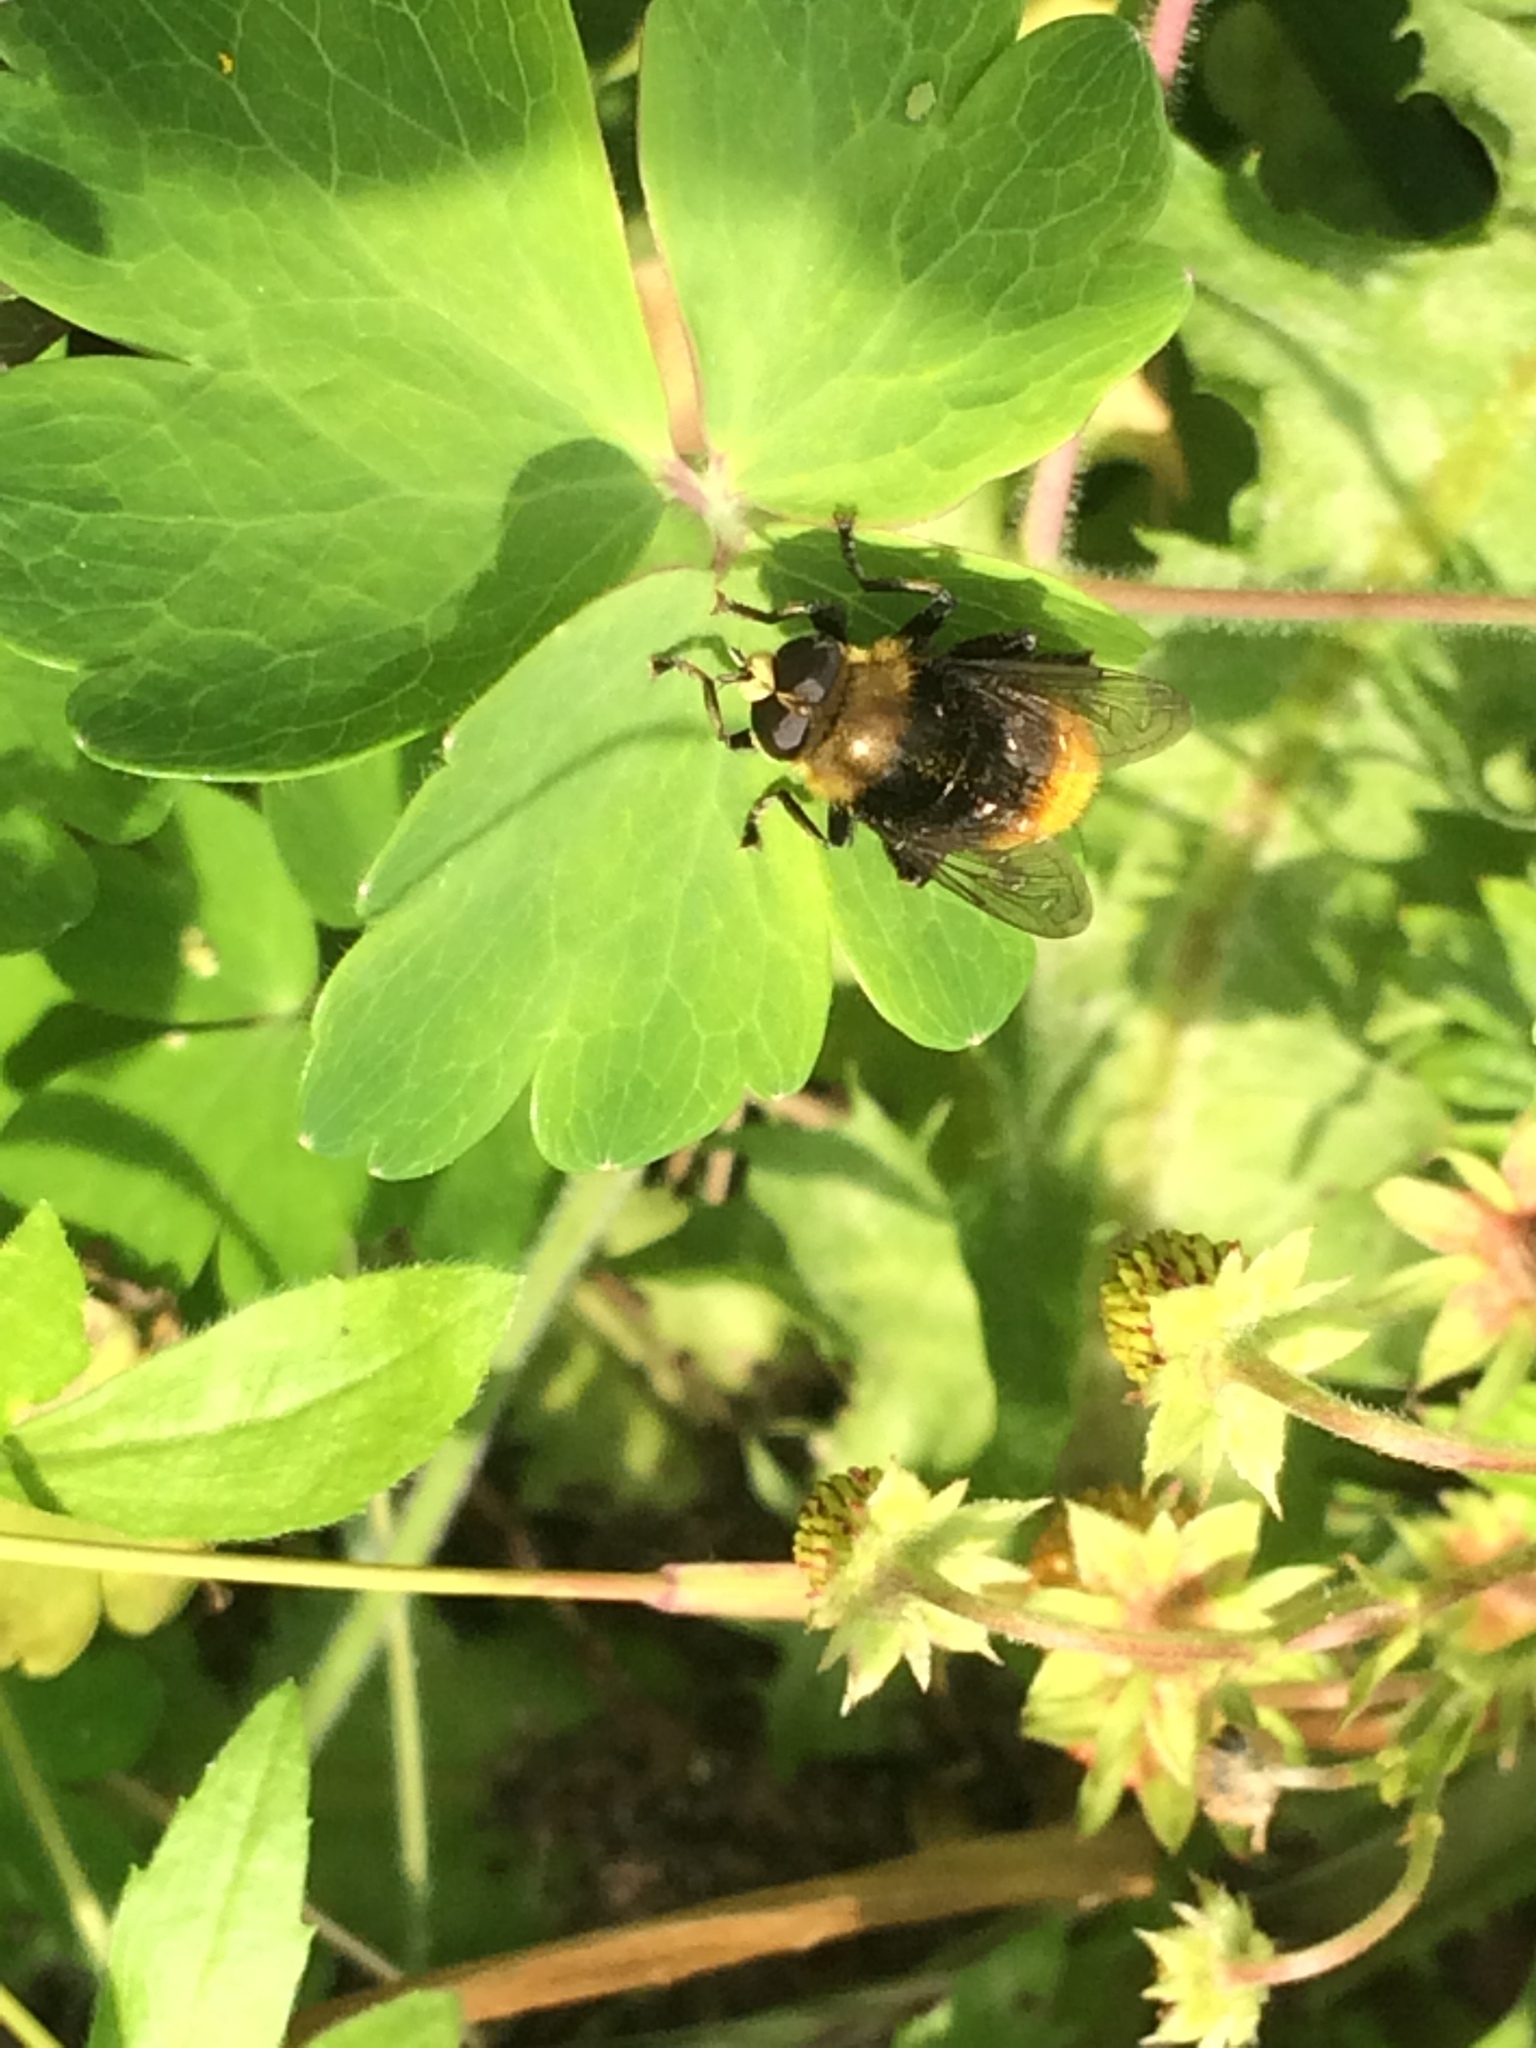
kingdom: Animalia
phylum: Arthropoda
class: Insecta
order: Diptera
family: Syrphidae
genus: Merodon
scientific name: Merodon equestris
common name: Greater bulb-fly
